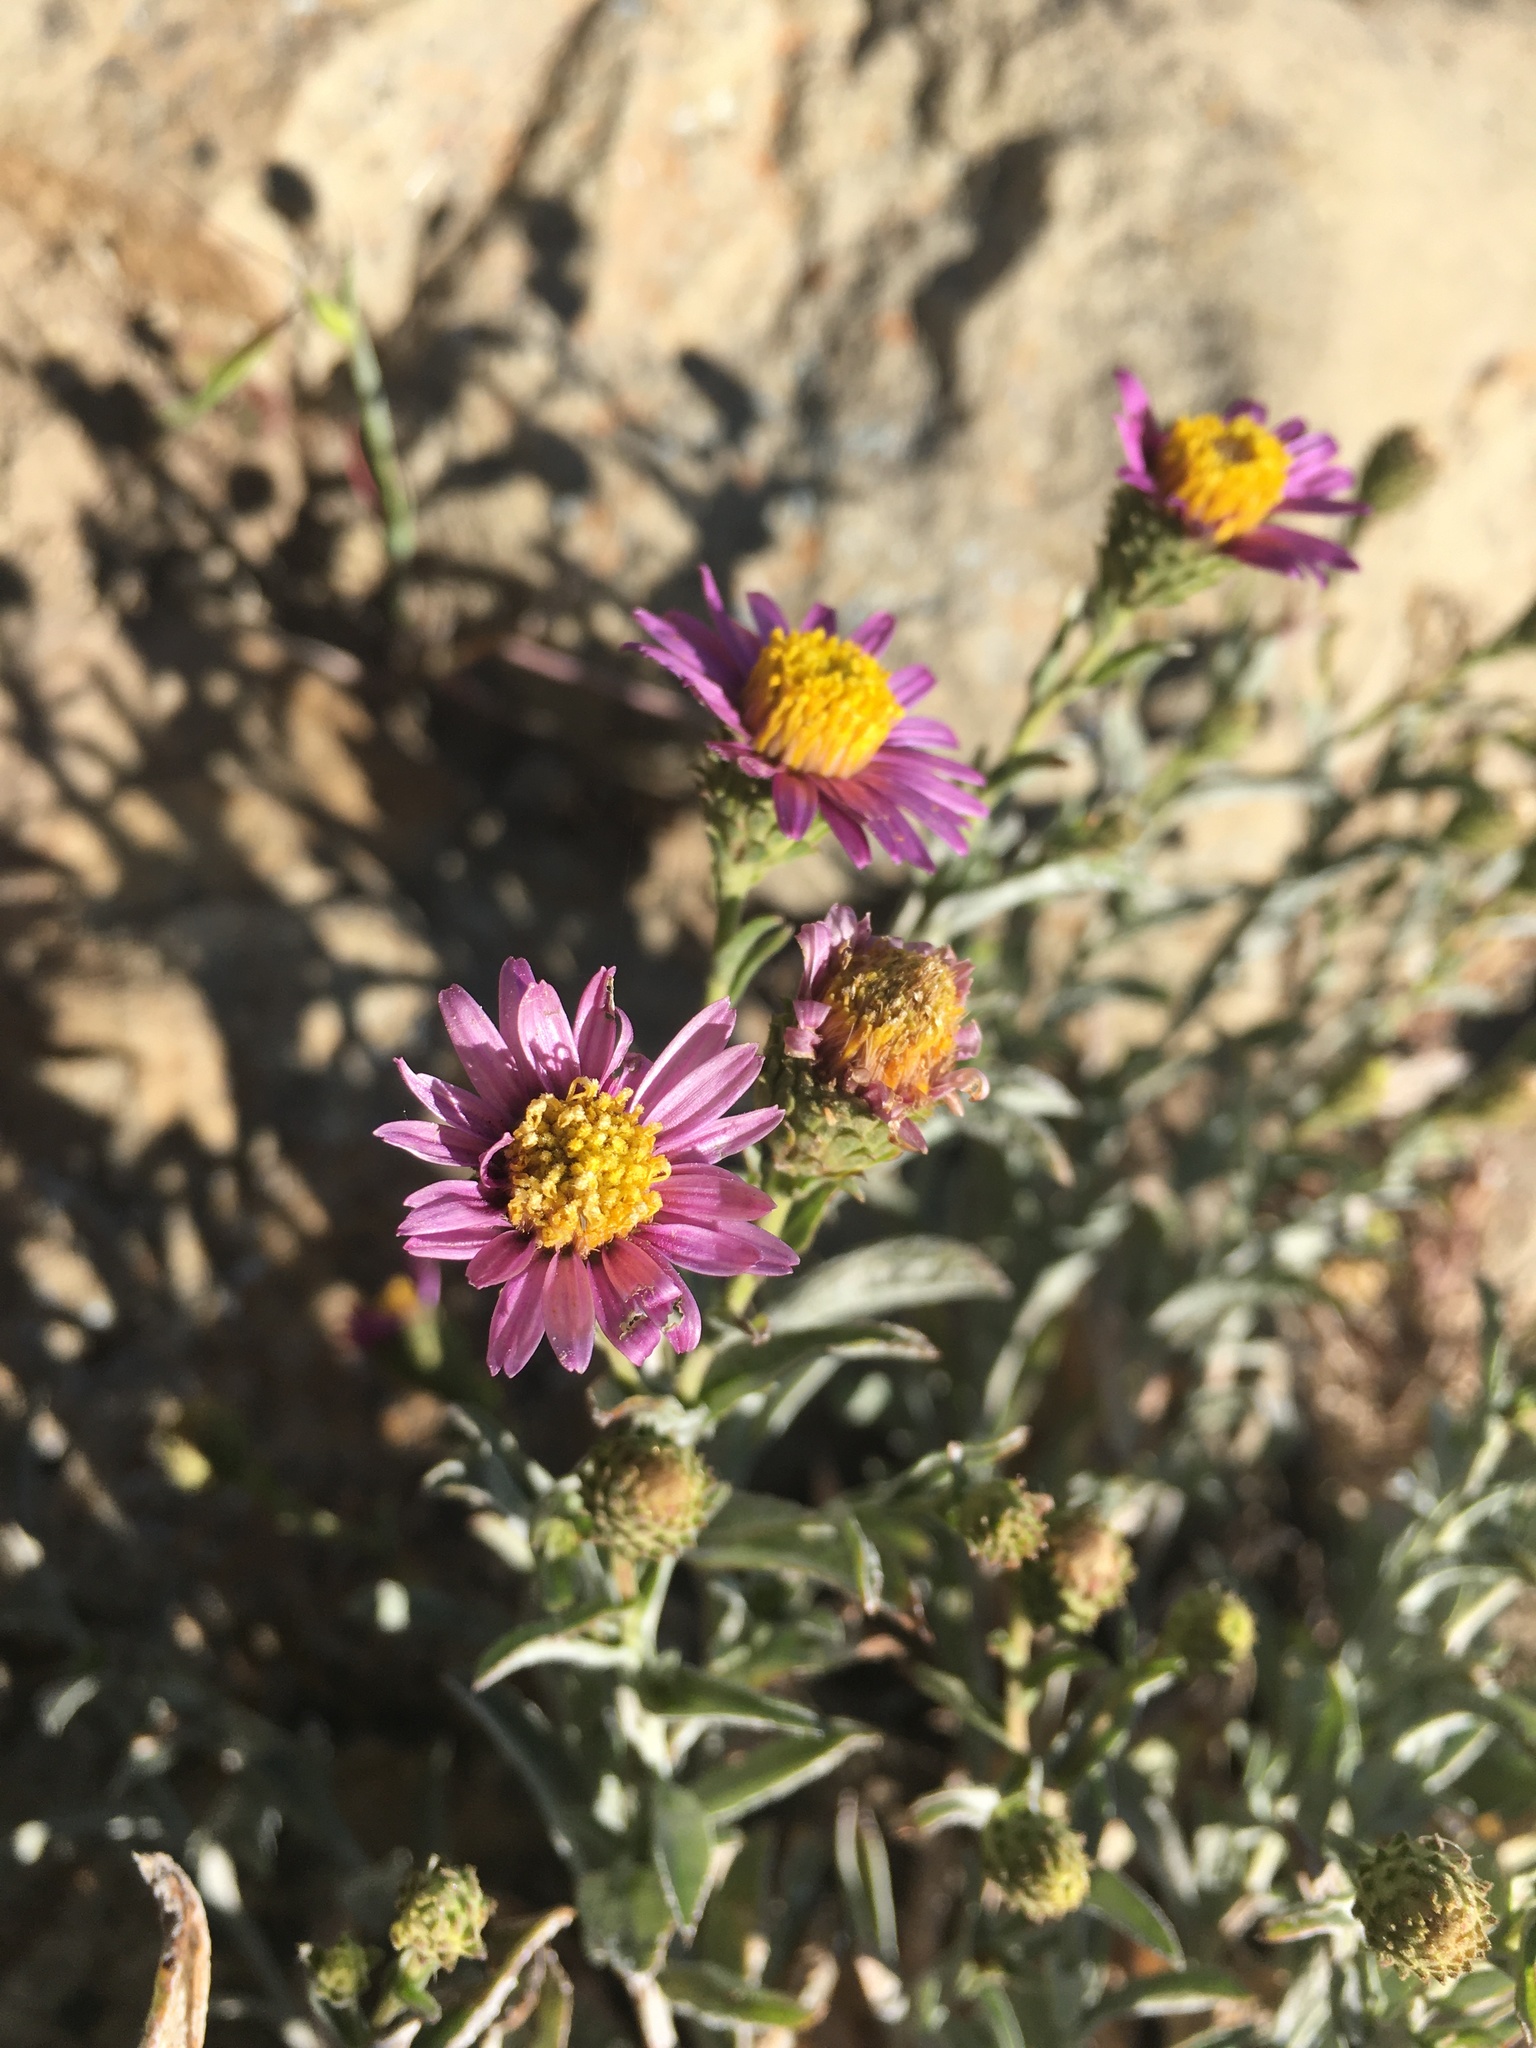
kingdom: Plantae
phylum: Tracheophyta
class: Magnoliopsida
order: Asterales
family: Asteraceae
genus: Corethrogyne
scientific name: Corethrogyne filaginifolia
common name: Sand-aster
